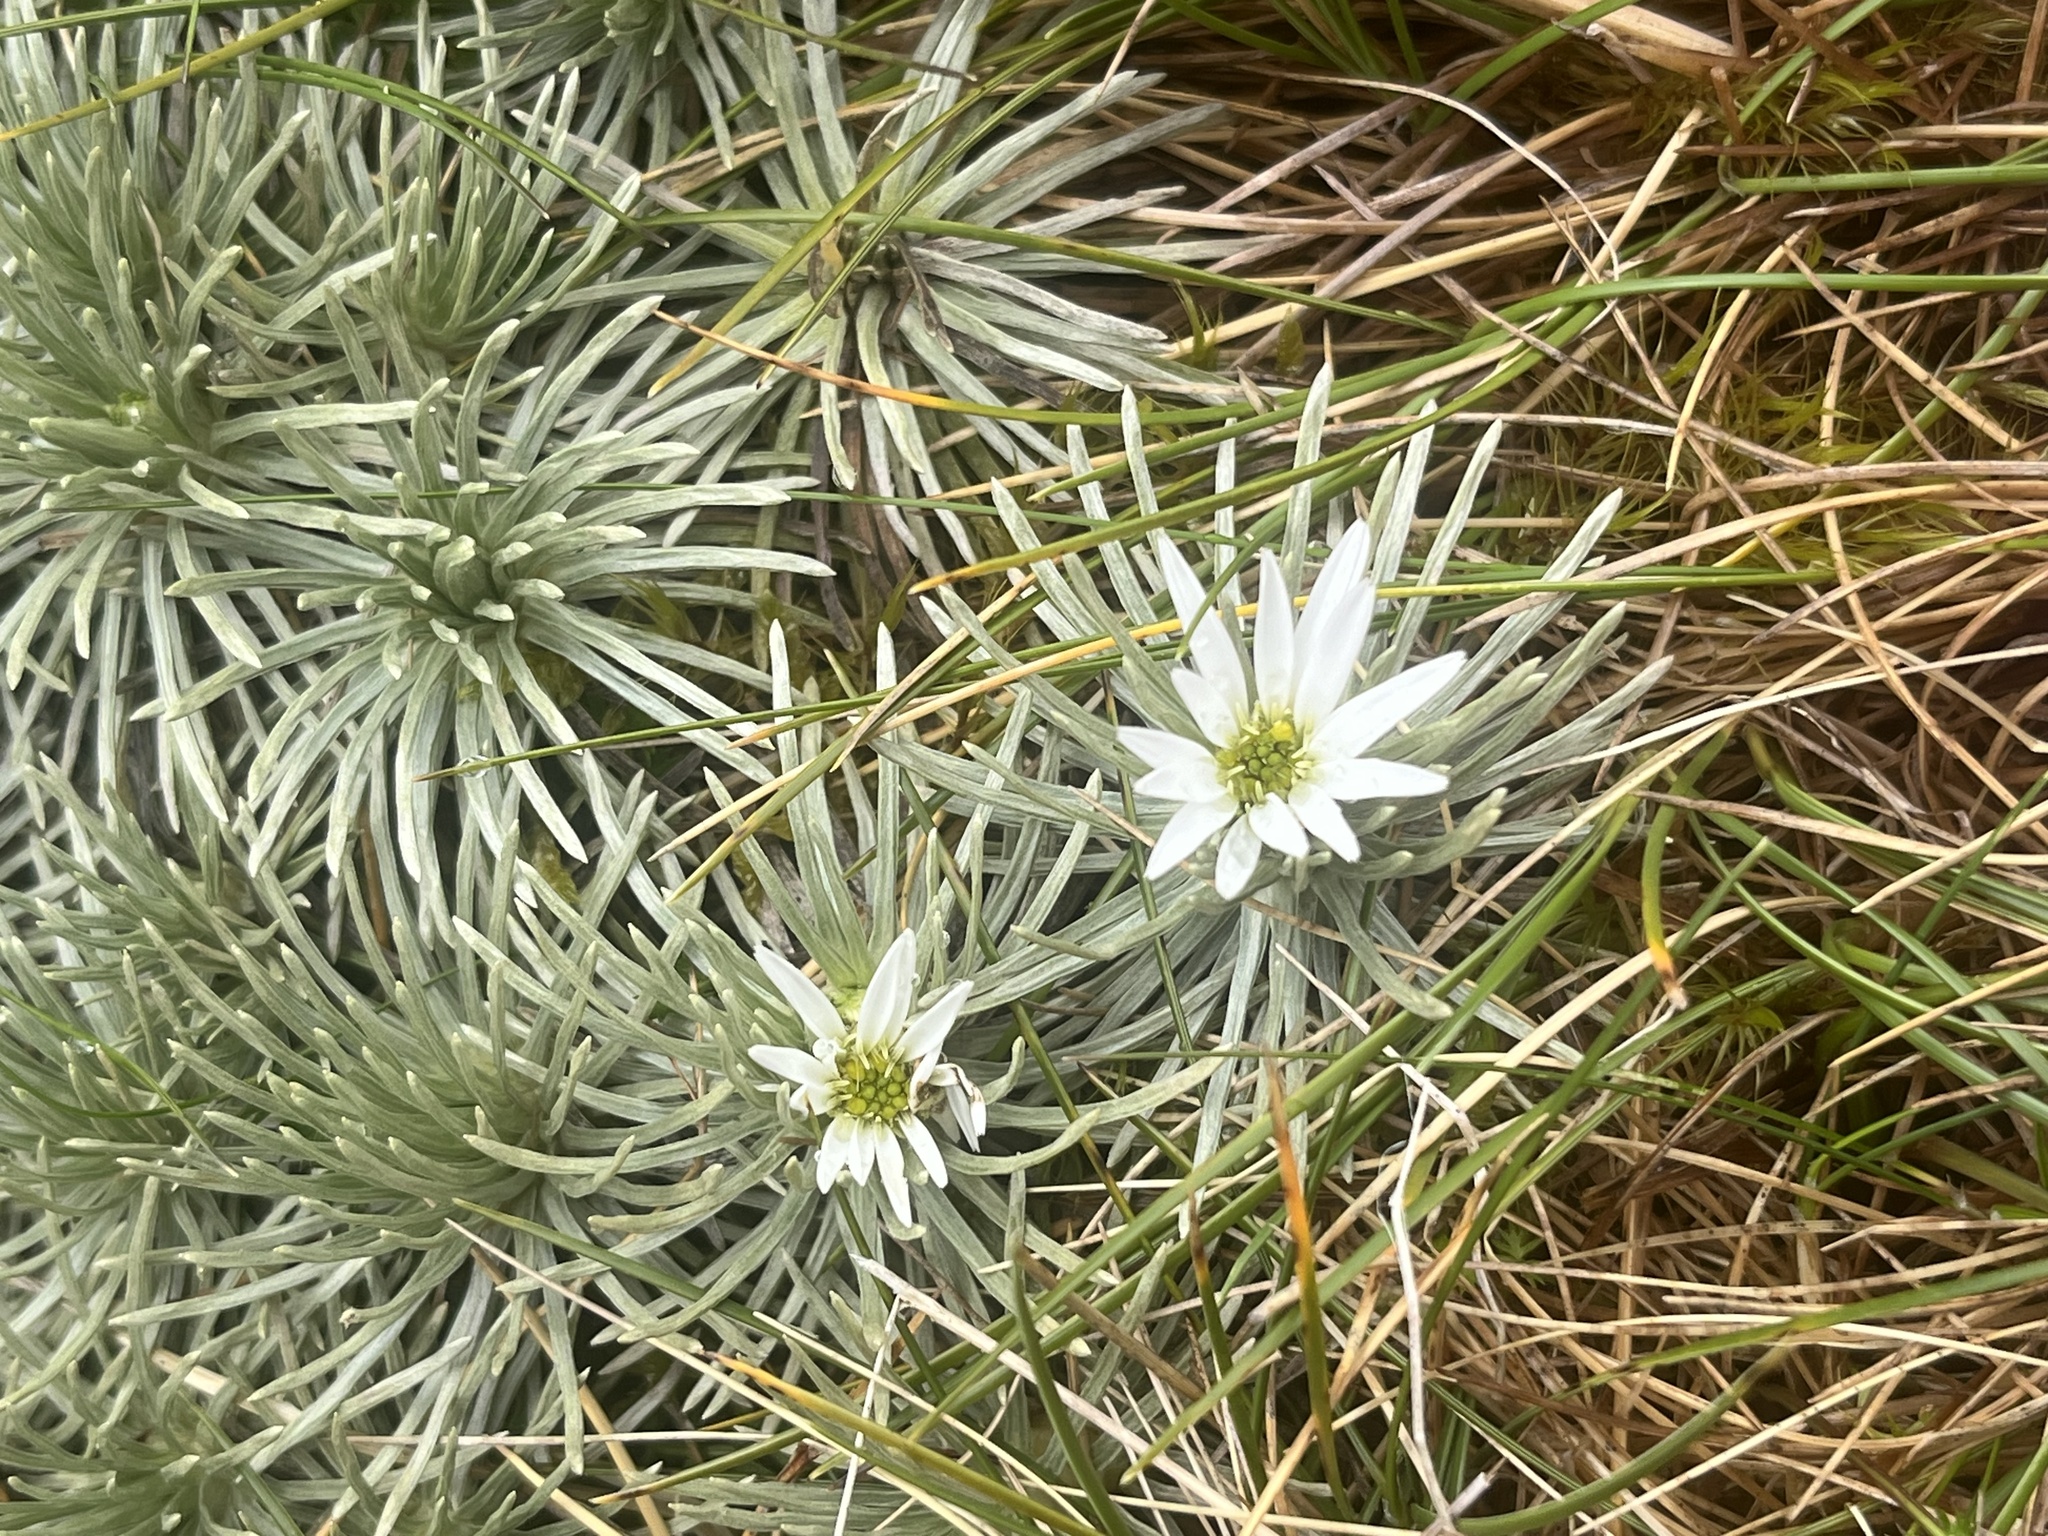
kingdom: Plantae
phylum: Tracheophyta
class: Magnoliopsida
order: Asterales
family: Asteraceae
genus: Celmisia
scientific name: Celmisia sessiliflora
